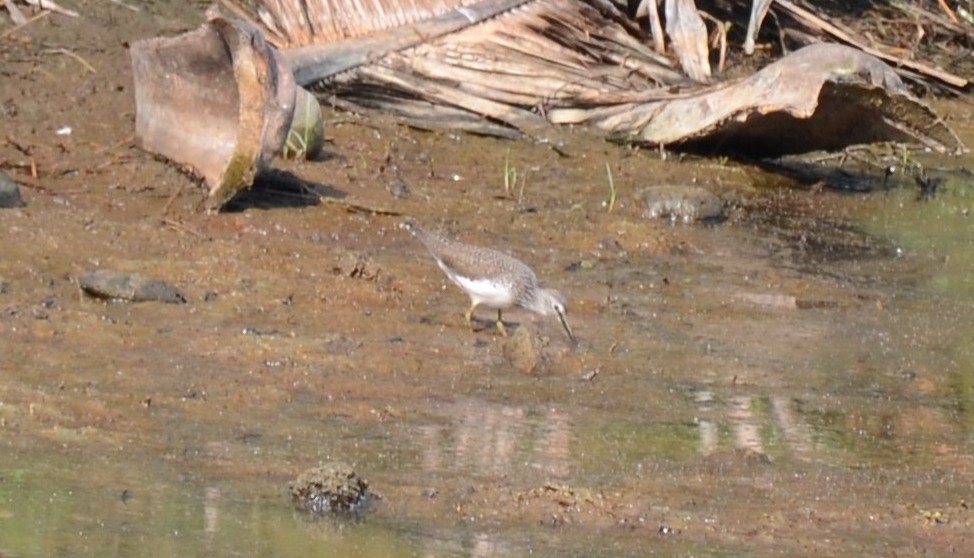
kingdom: Animalia
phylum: Chordata
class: Aves
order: Charadriiformes
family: Scolopacidae
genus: Tringa
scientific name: Tringa ochropus
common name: Green sandpiper
